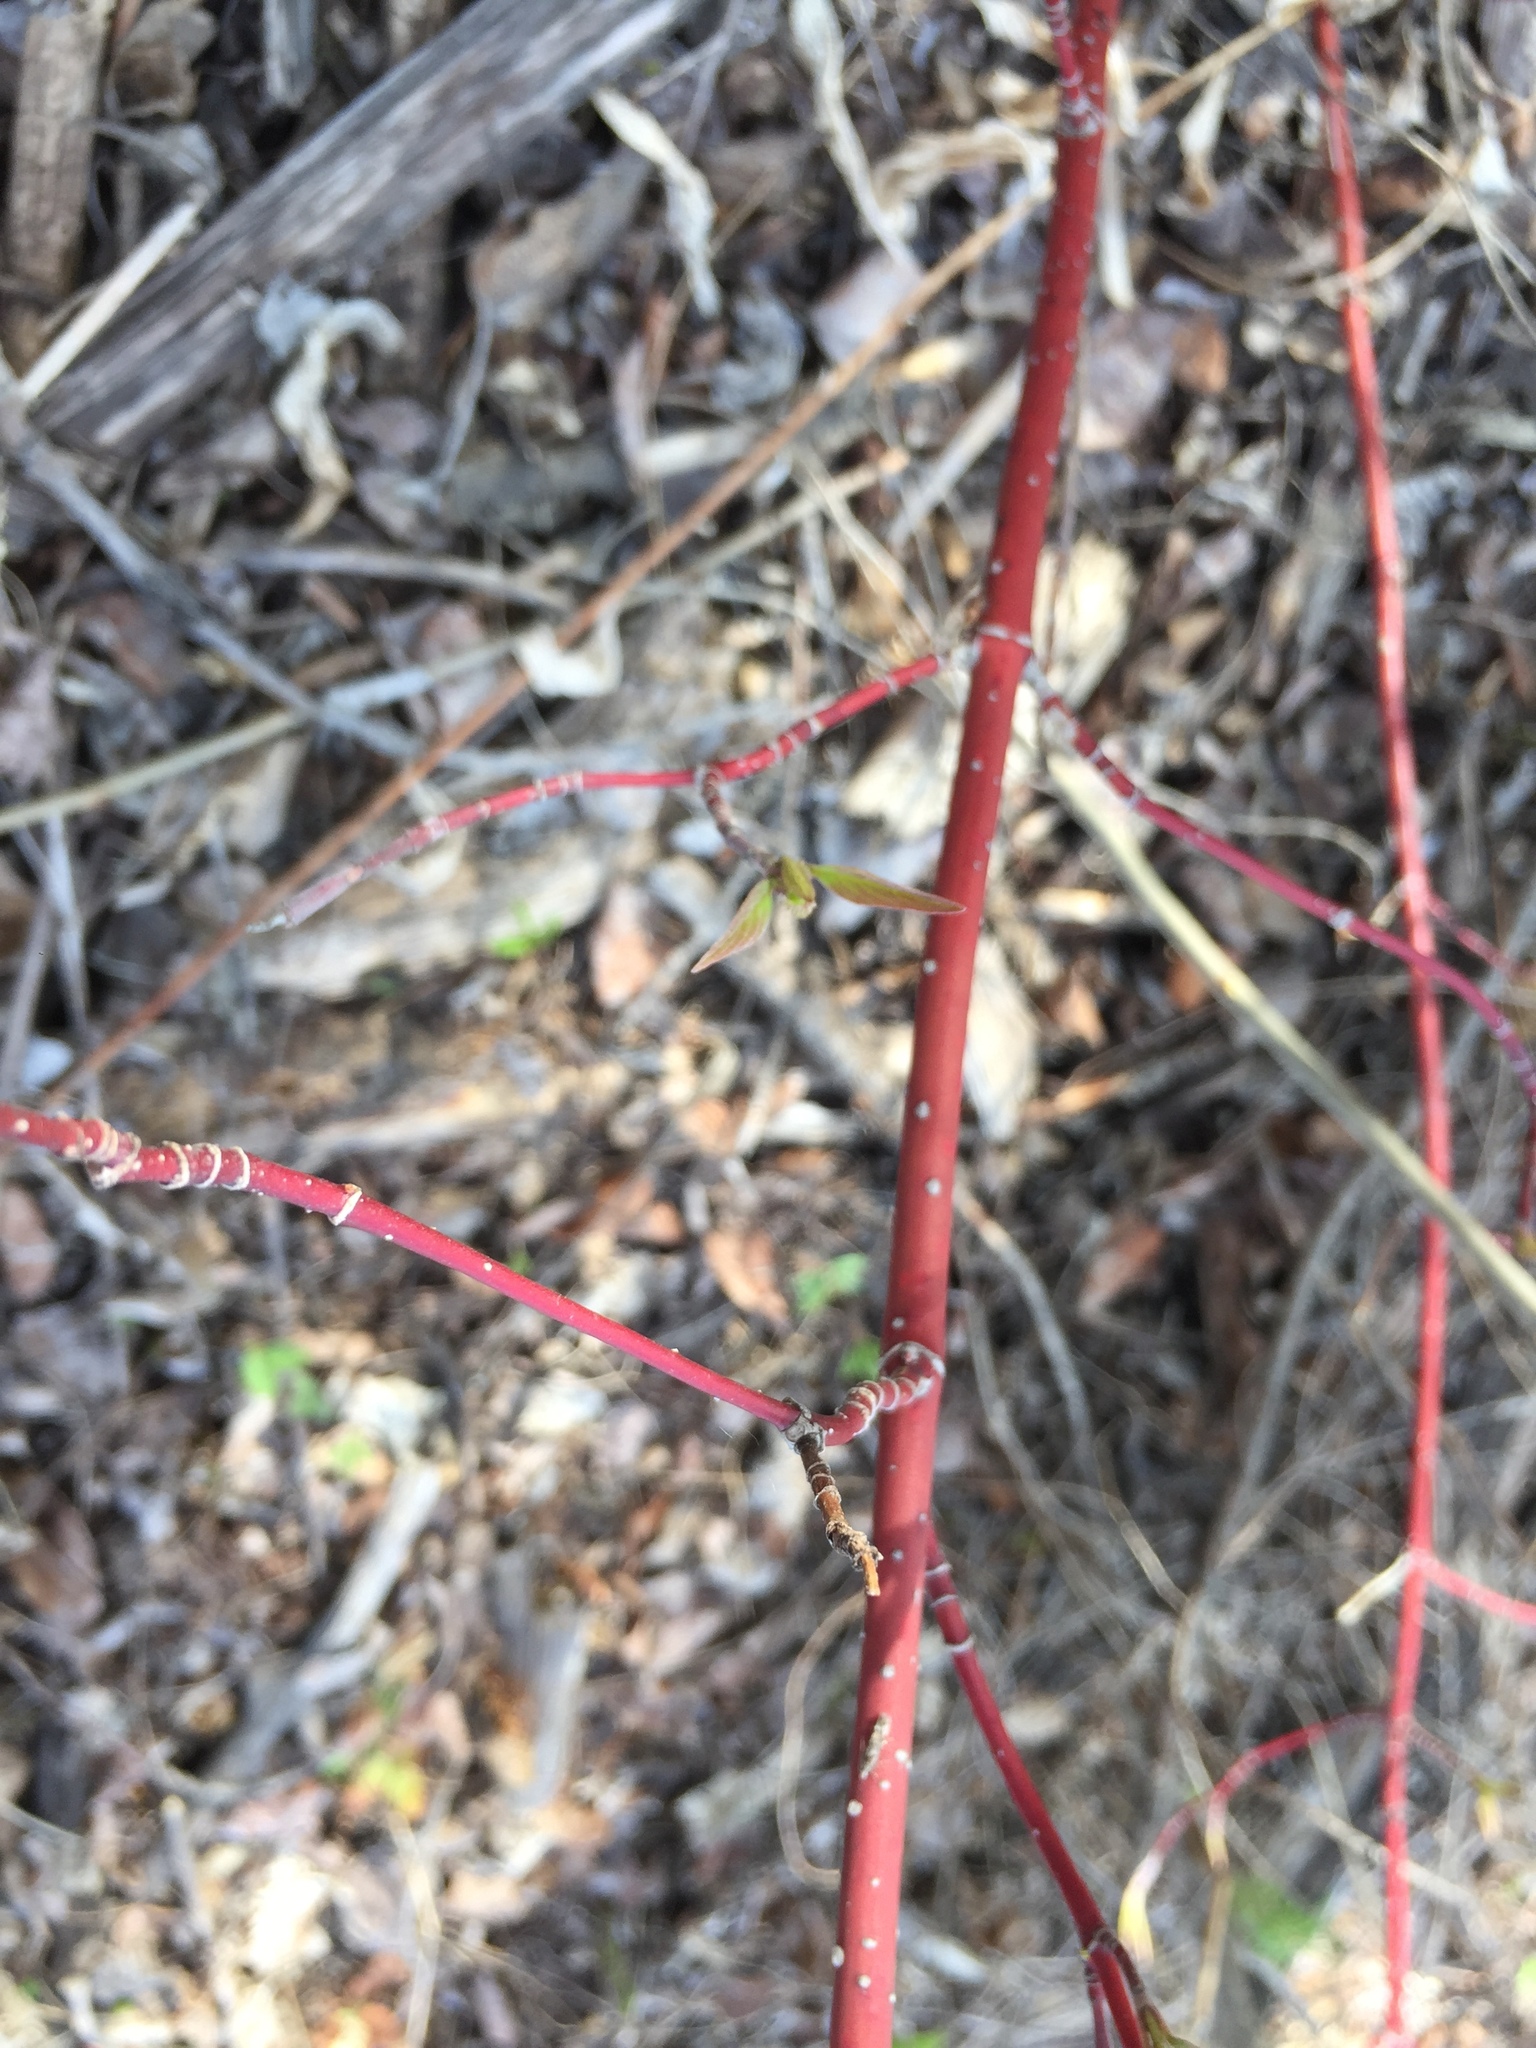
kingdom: Plantae
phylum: Tracheophyta
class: Magnoliopsida
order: Cornales
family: Cornaceae
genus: Cornus
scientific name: Cornus sericea
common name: Red-osier dogwood
